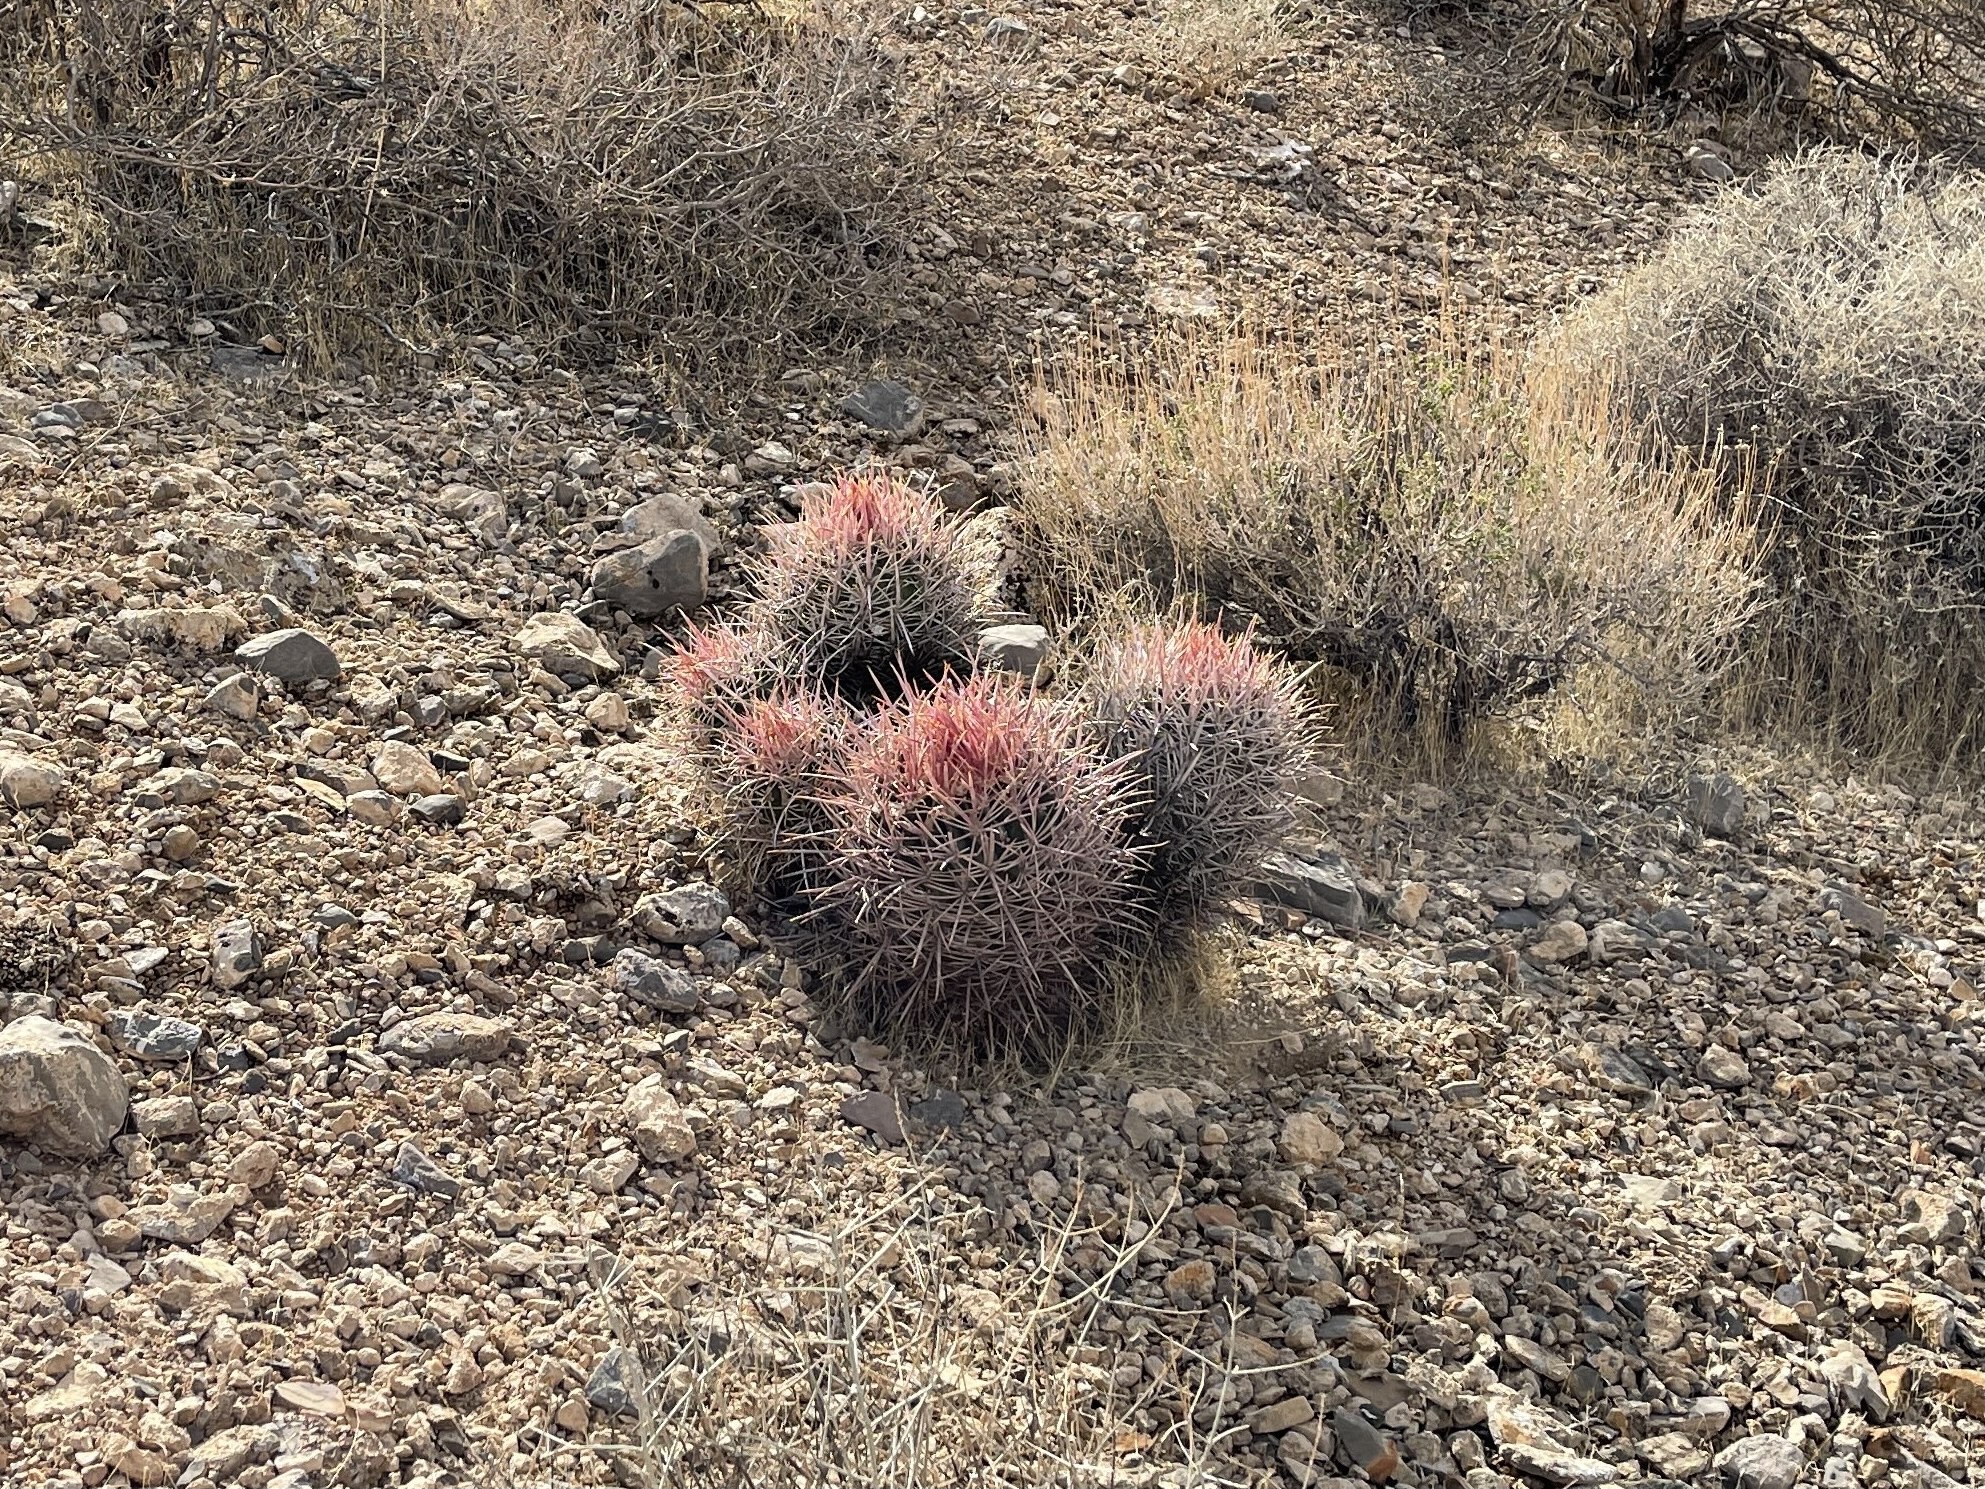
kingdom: Plantae
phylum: Tracheophyta
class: Magnoliopsida
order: Caryophyllales
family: Cactaceae
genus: Echinocactus
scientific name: Echinocactus polycephalus
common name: Cottontop cactus
